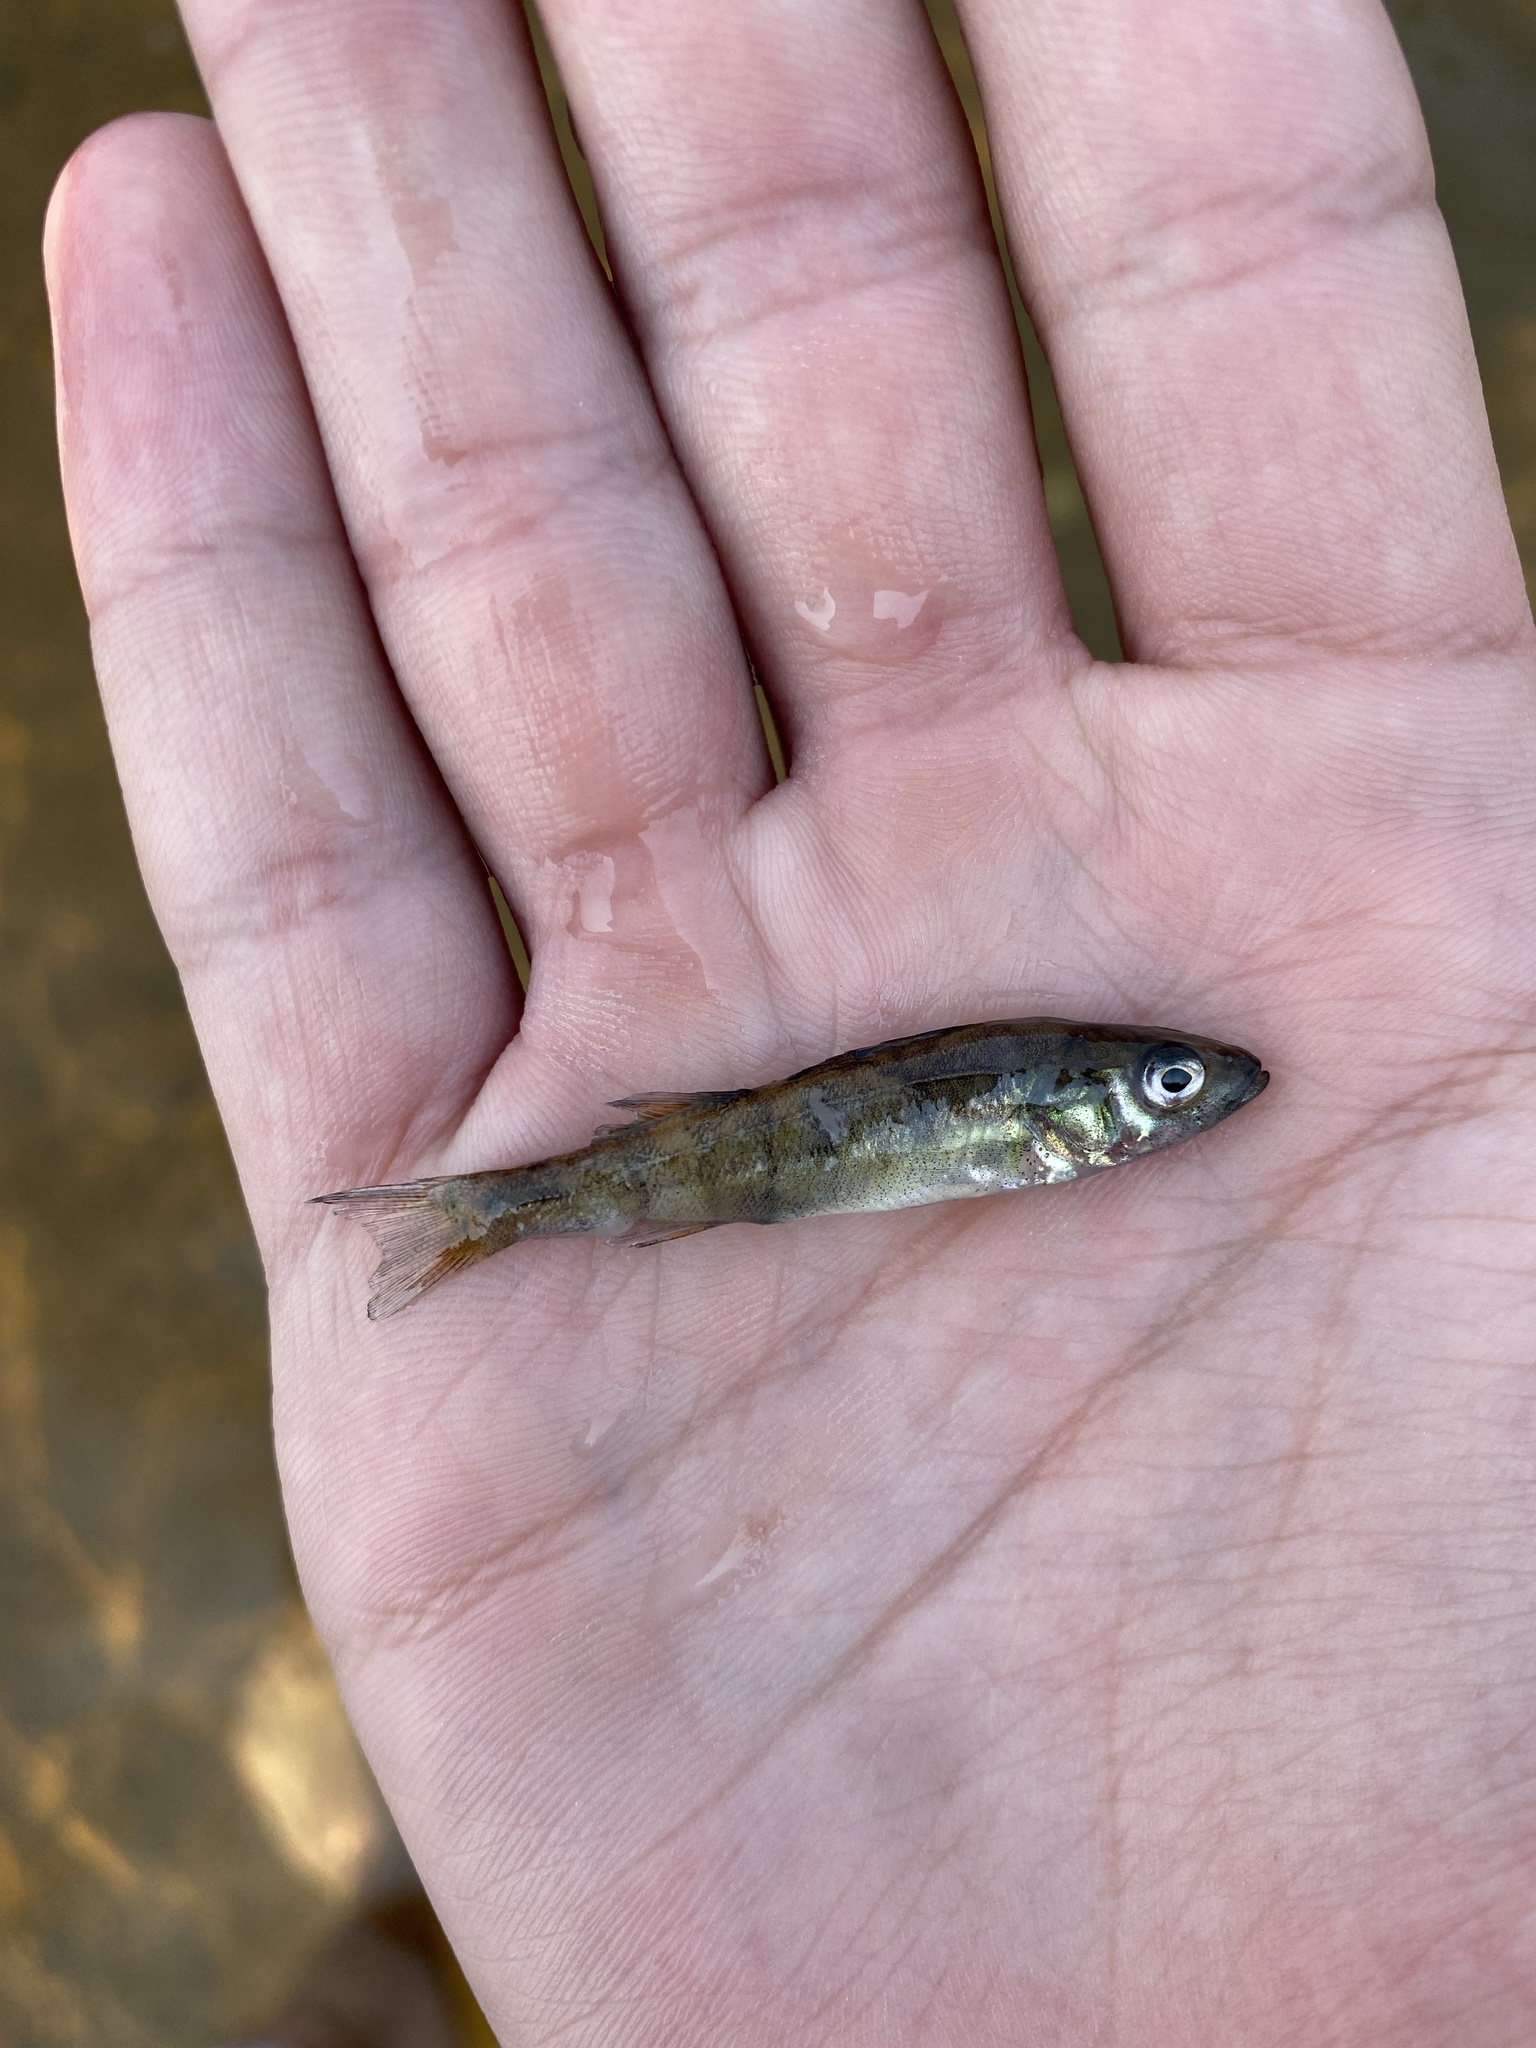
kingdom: Animalia
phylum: Chordata
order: Perciformes
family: Percidae
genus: Perca
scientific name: Perca flavescens
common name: Yellow perch
